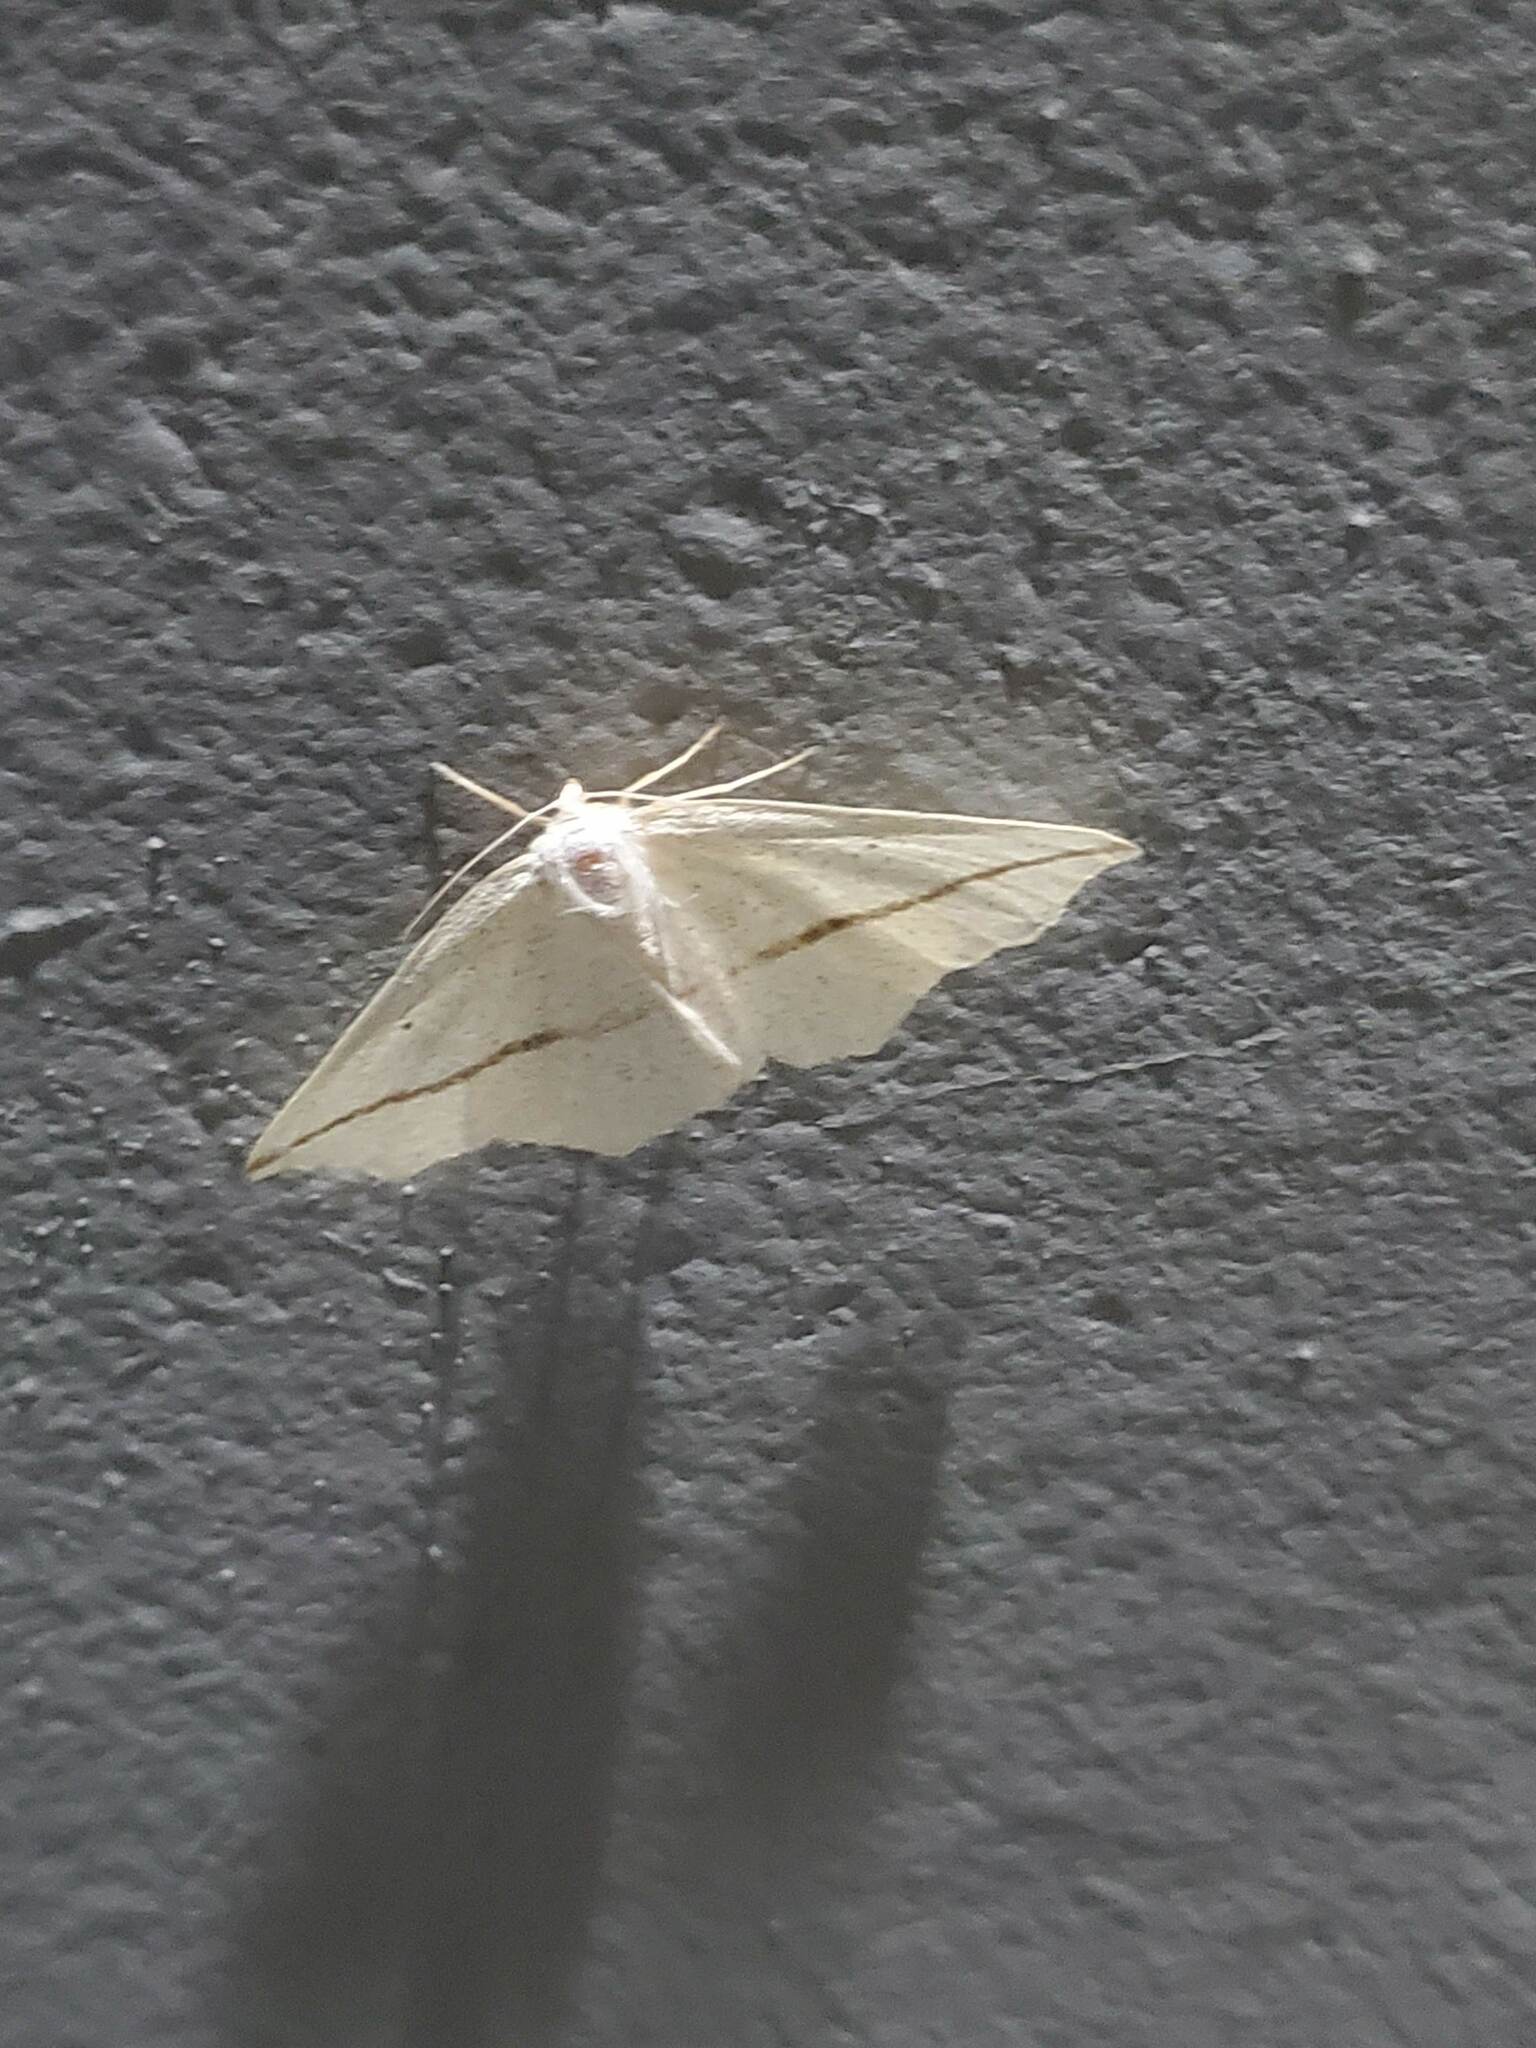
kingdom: Animalia
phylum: Arthropoda
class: Insecta
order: Lepidoptera
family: Geometridae
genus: Tetracis
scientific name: Tetracis crocallata
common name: Yellow slant-line
